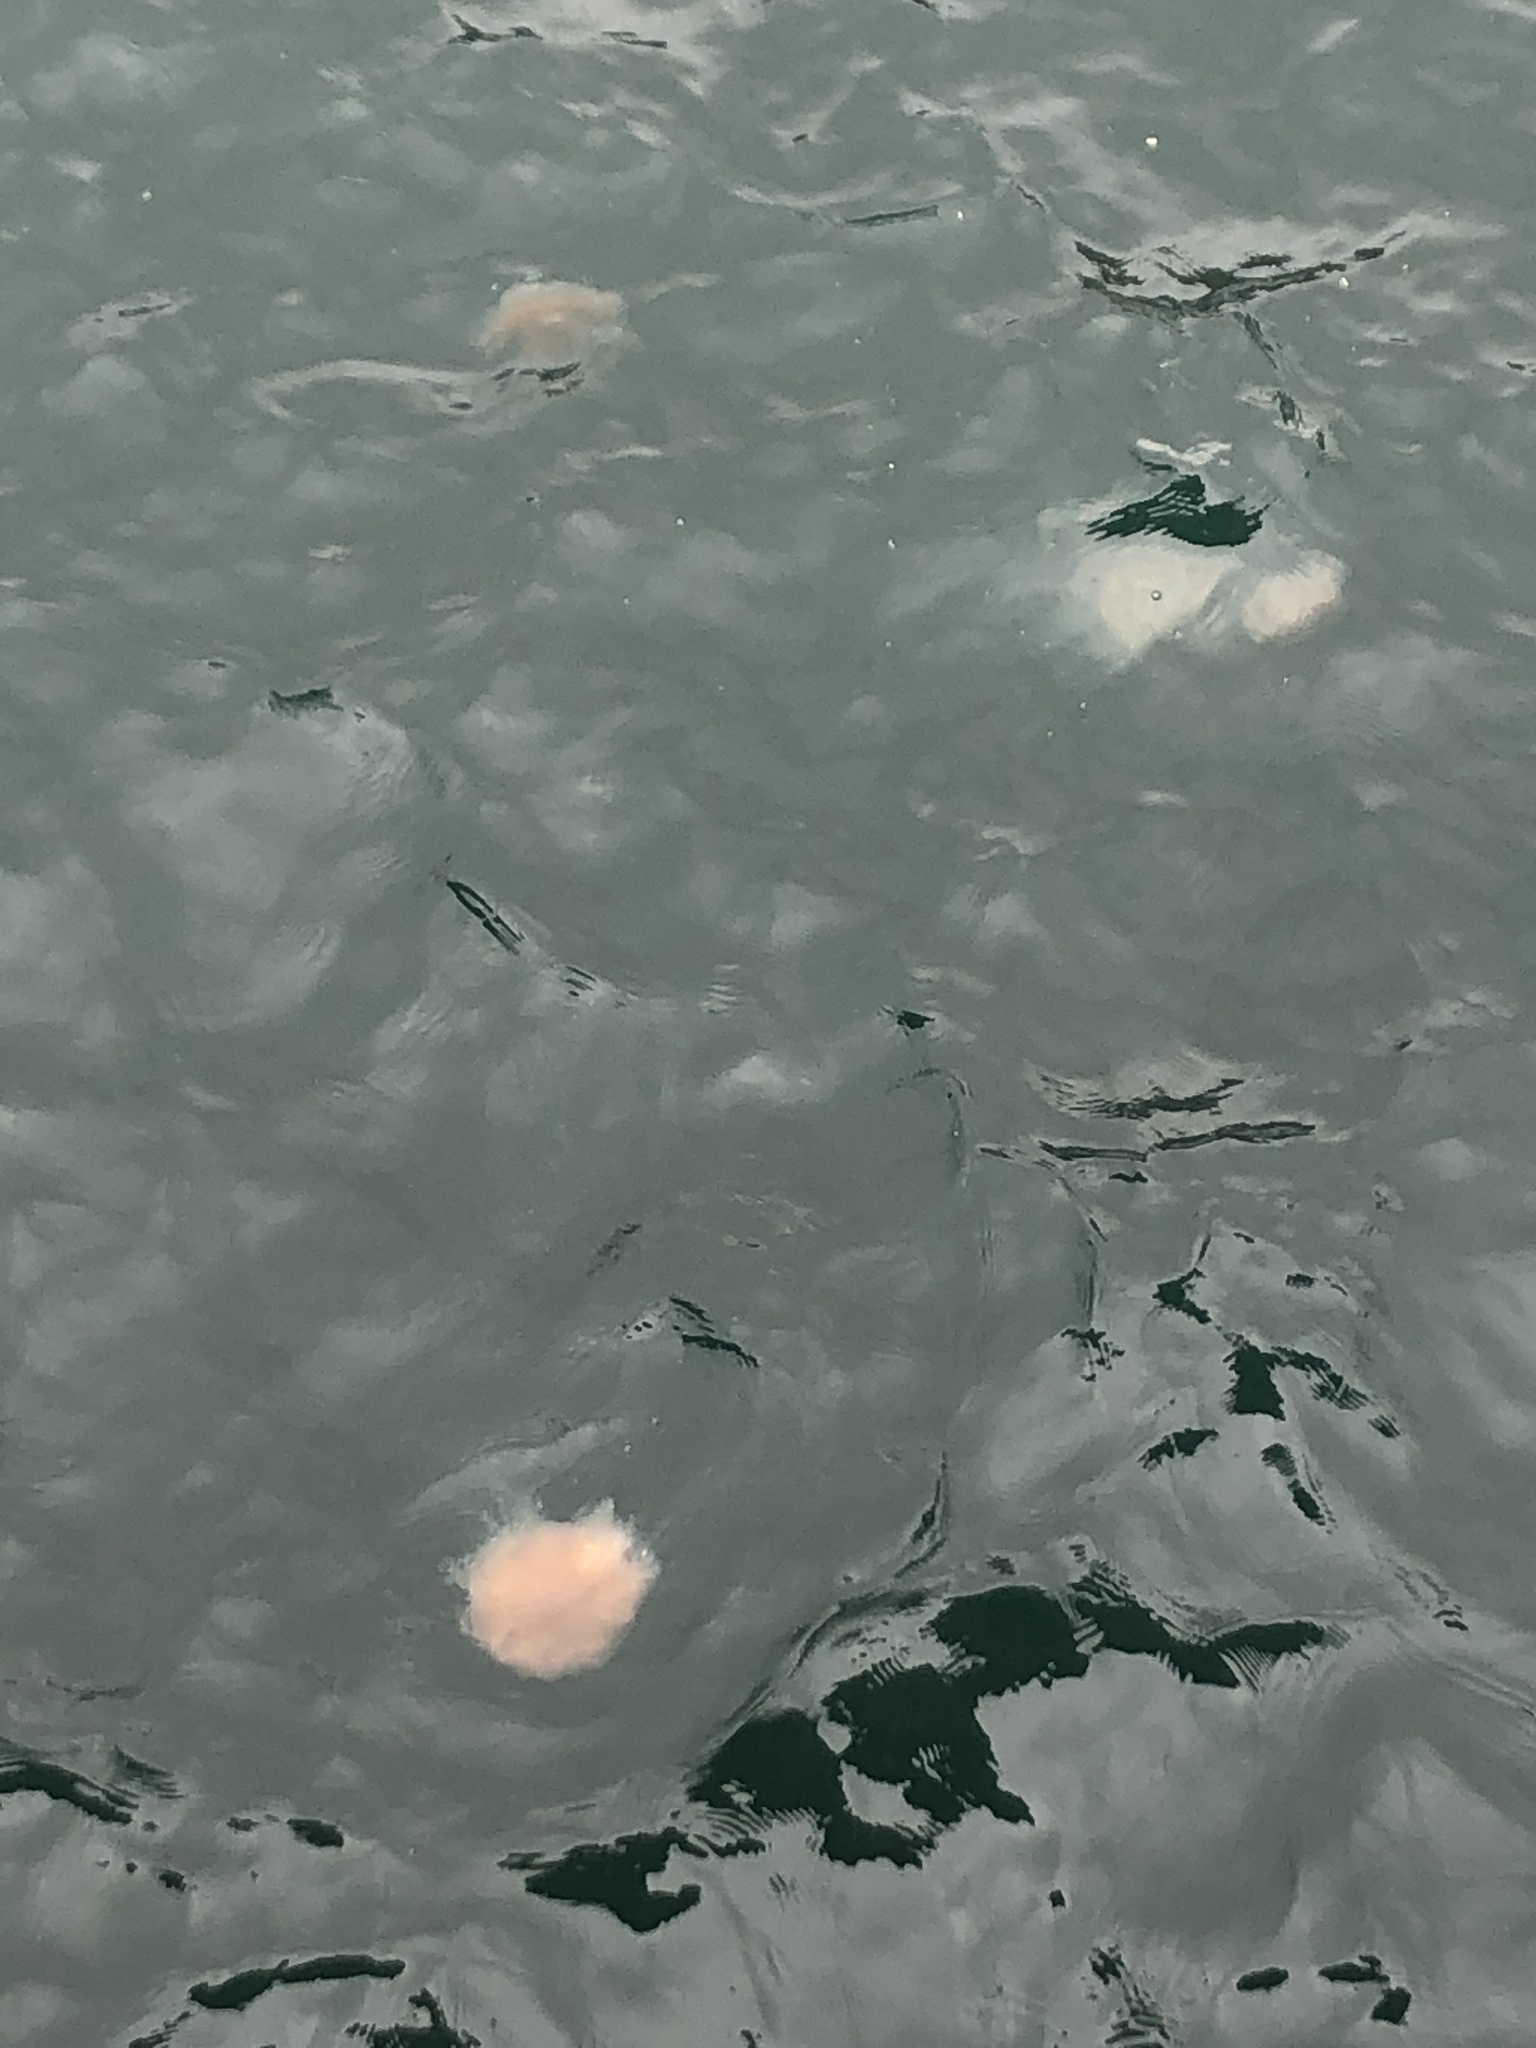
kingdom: Animalia
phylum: Cnidaria
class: Scyphozoa
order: Semaeostomeae
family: Cyaneidae
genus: Cyanea
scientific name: Cyanea nozakii
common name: Lion’s mane
